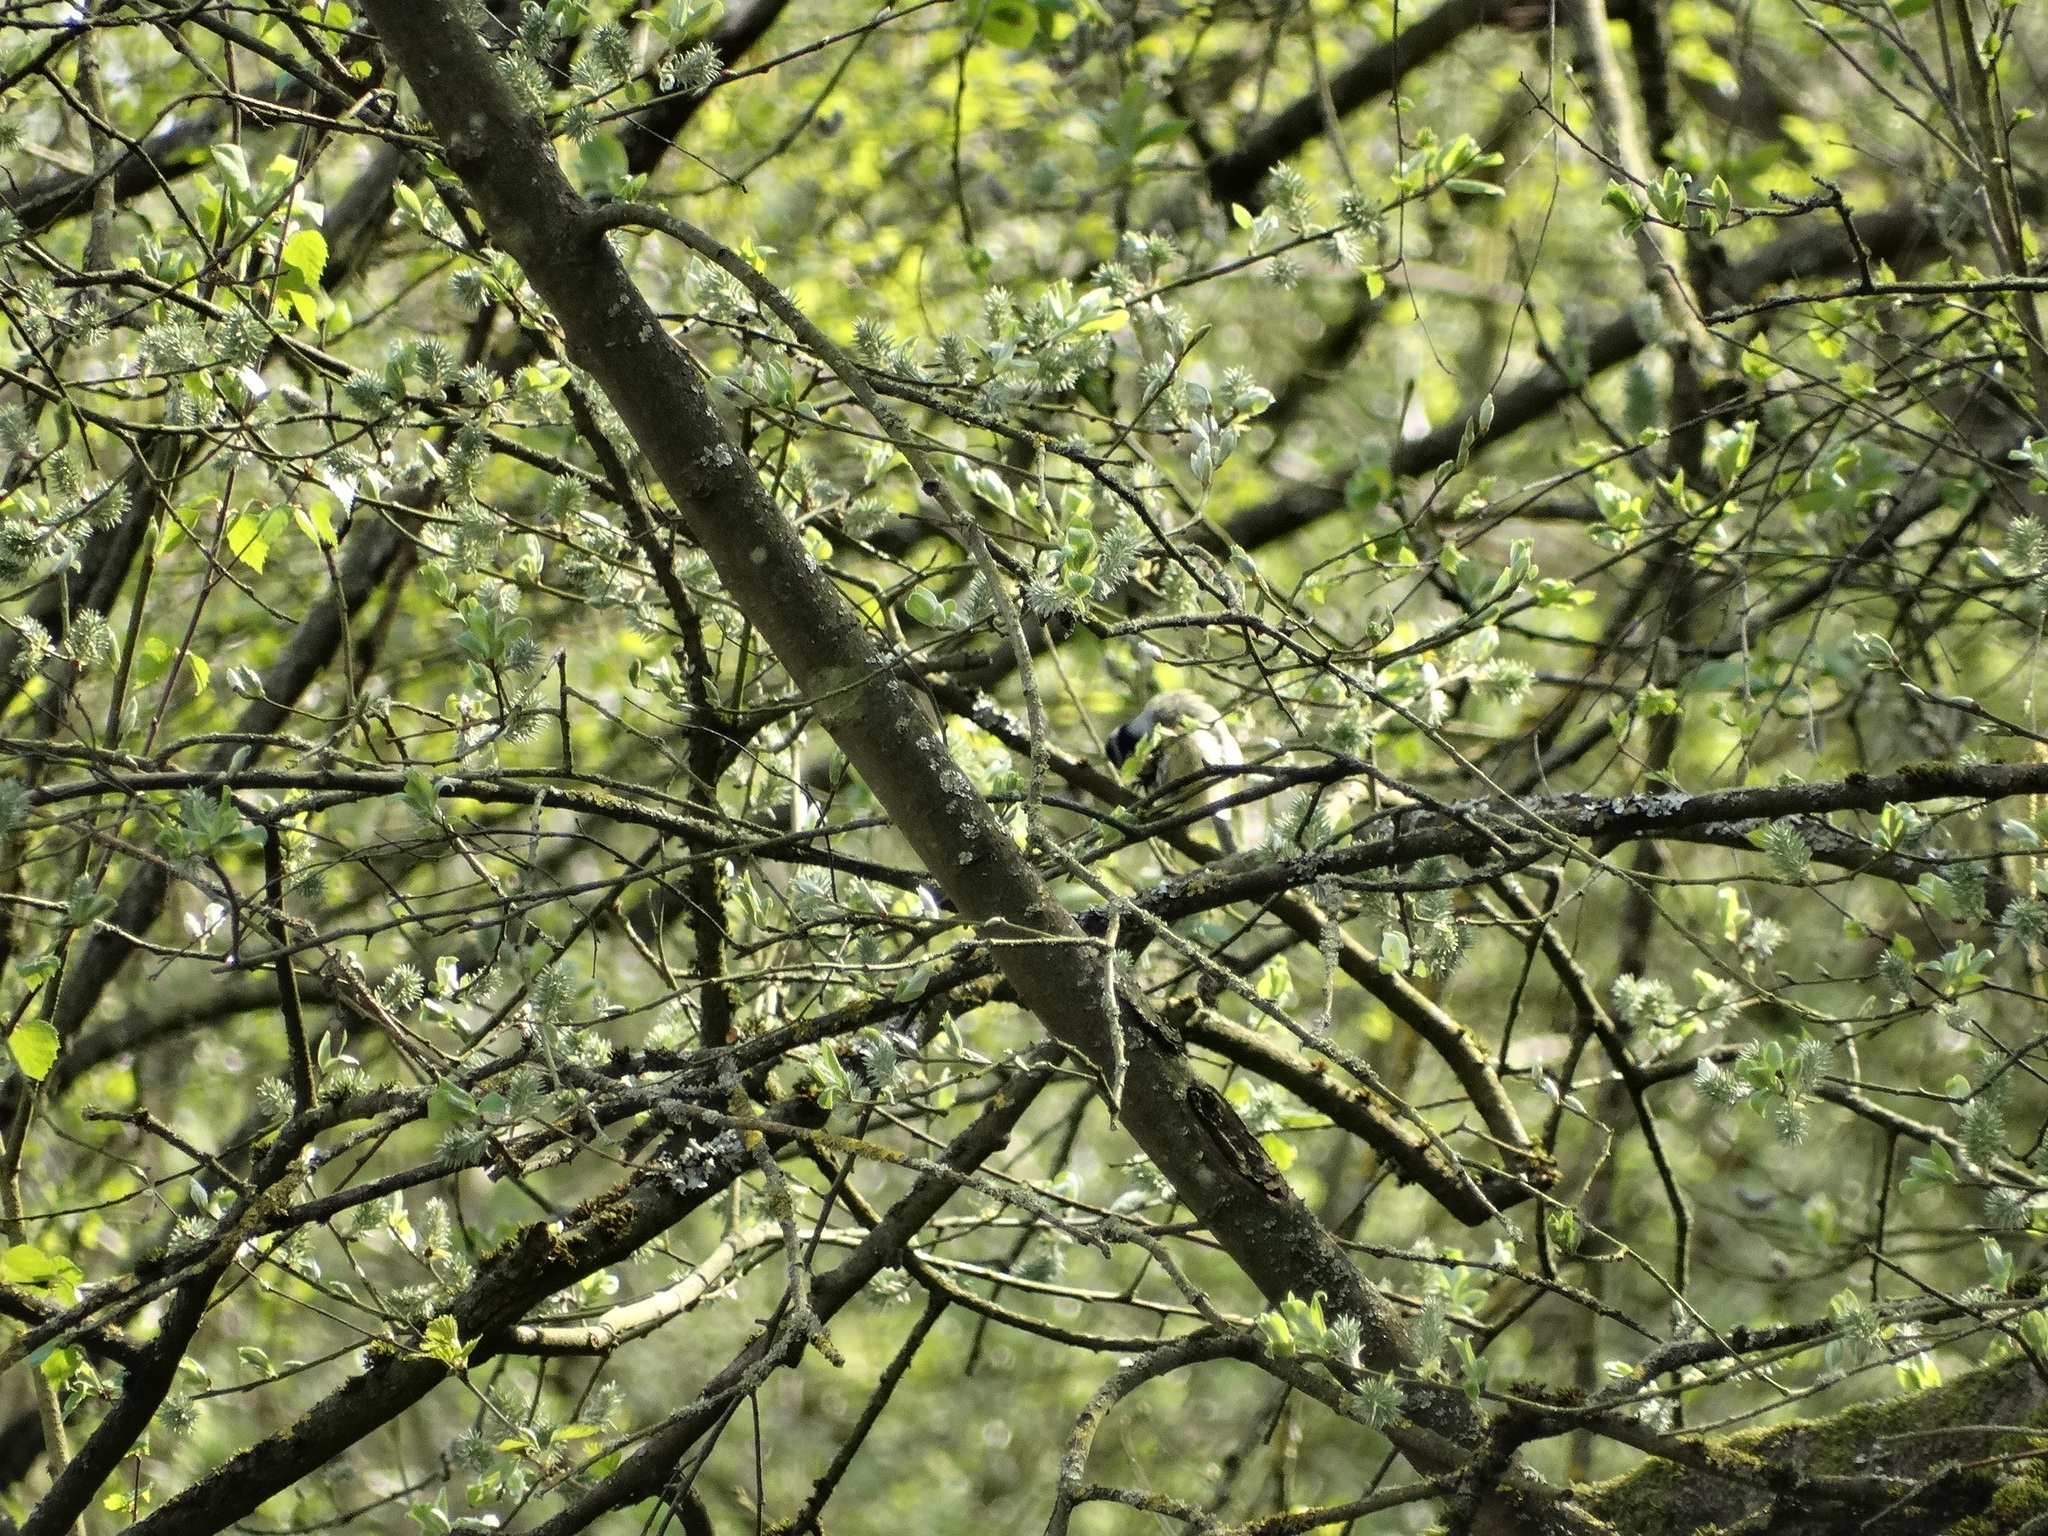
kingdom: Animalia
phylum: Chordata
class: Aves
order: Passeriformes
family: Paridae
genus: Cyanistes
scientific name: Cyanistes caeruleus
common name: Eurasian blue tit
